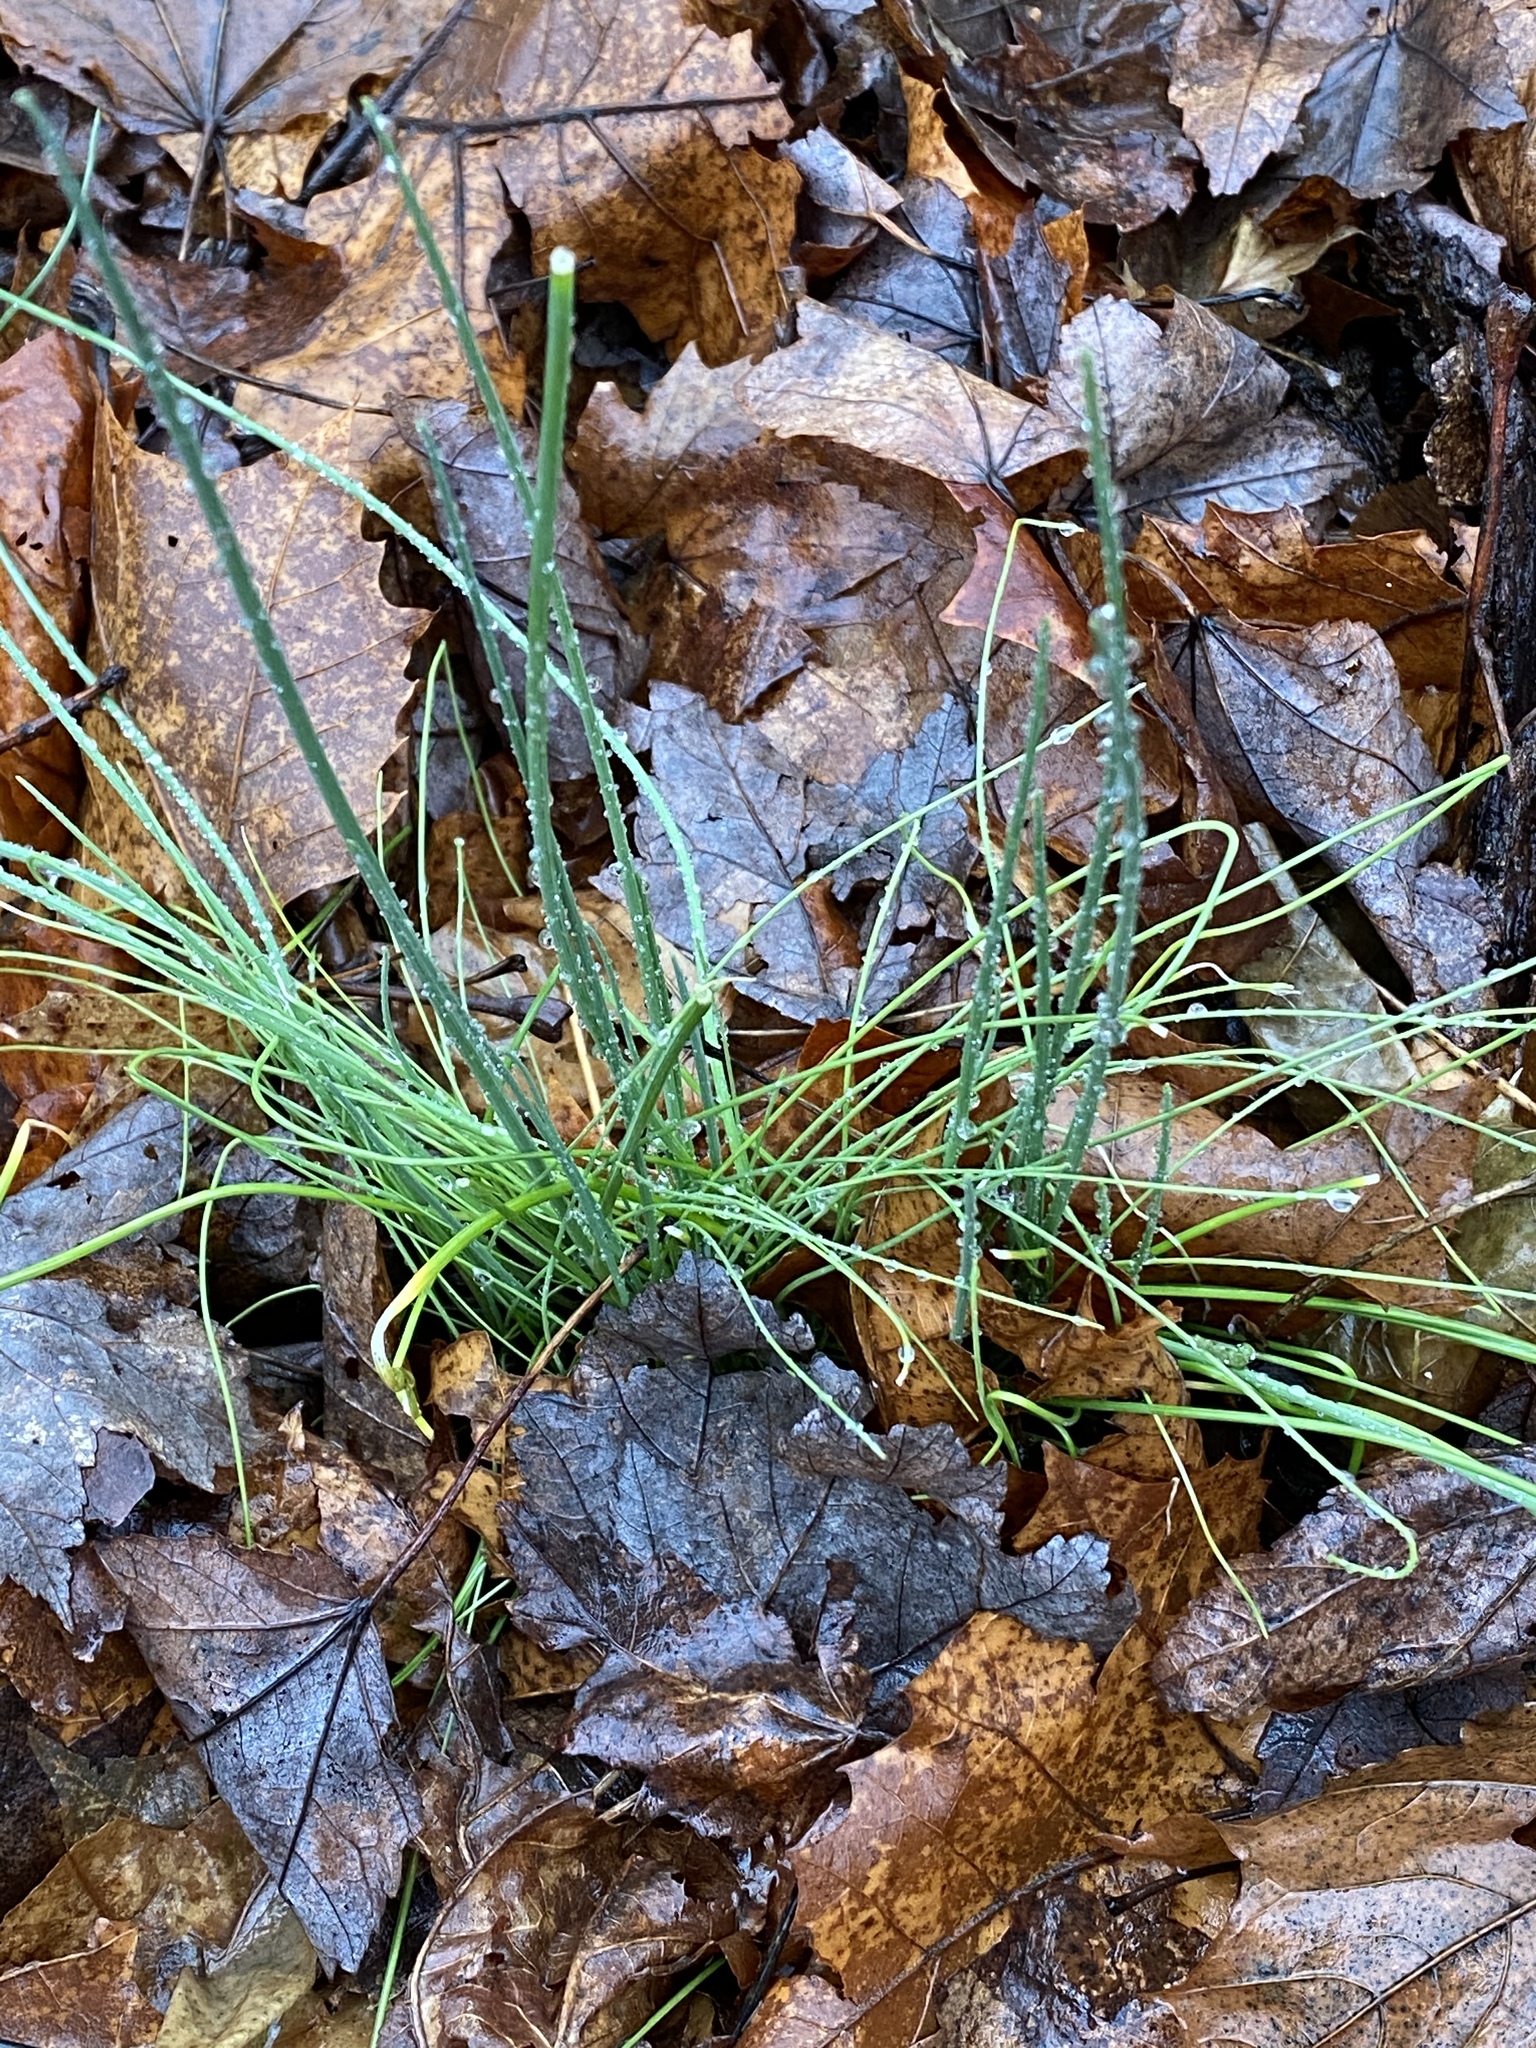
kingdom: Plantae
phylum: Tracheophyta
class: Liliopsida
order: Asparagales
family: Amaryllidaceae
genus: Allium
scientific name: Allium vineale
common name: Crow garlic
